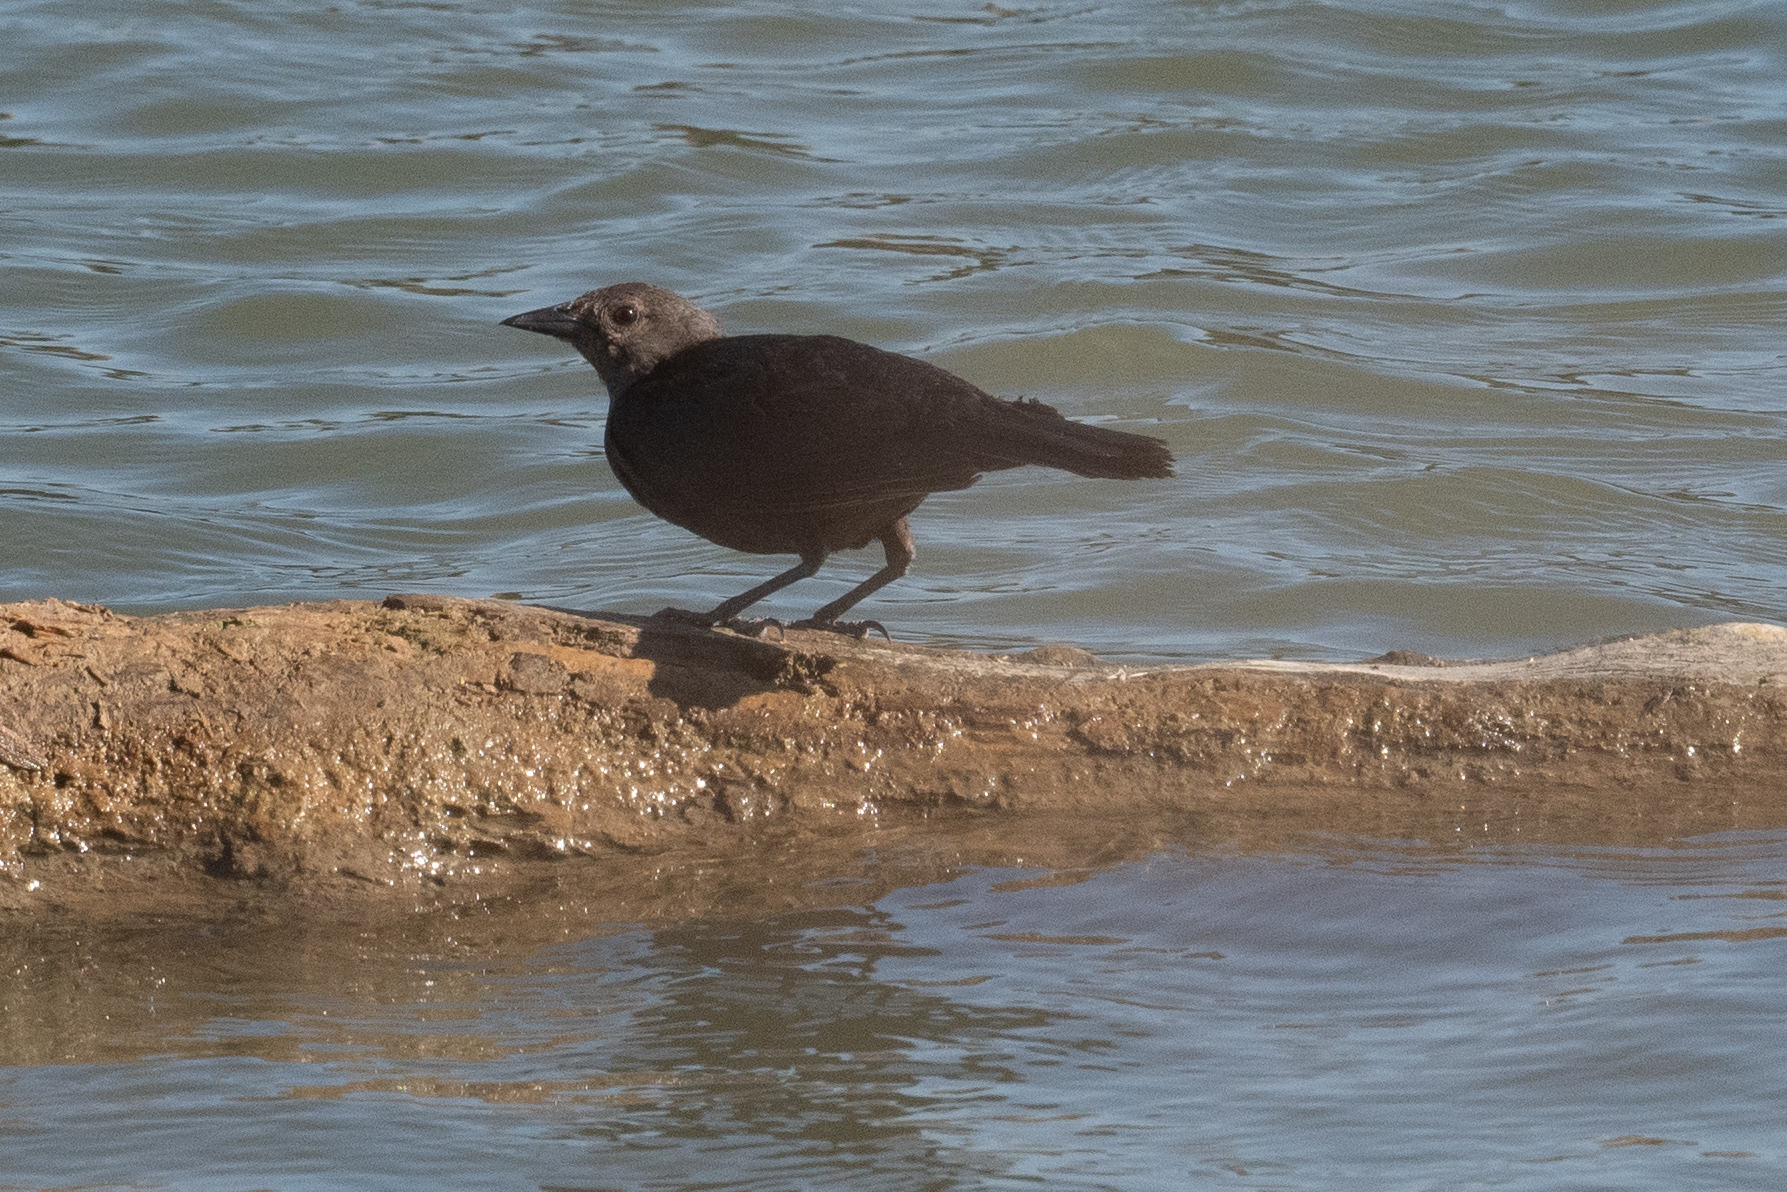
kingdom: Animalia
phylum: Chordata
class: Aves
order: Passeriformes
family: Icteridae
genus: Euphagus
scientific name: Euphagus cyanocephalus
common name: Brewer's blackbird
